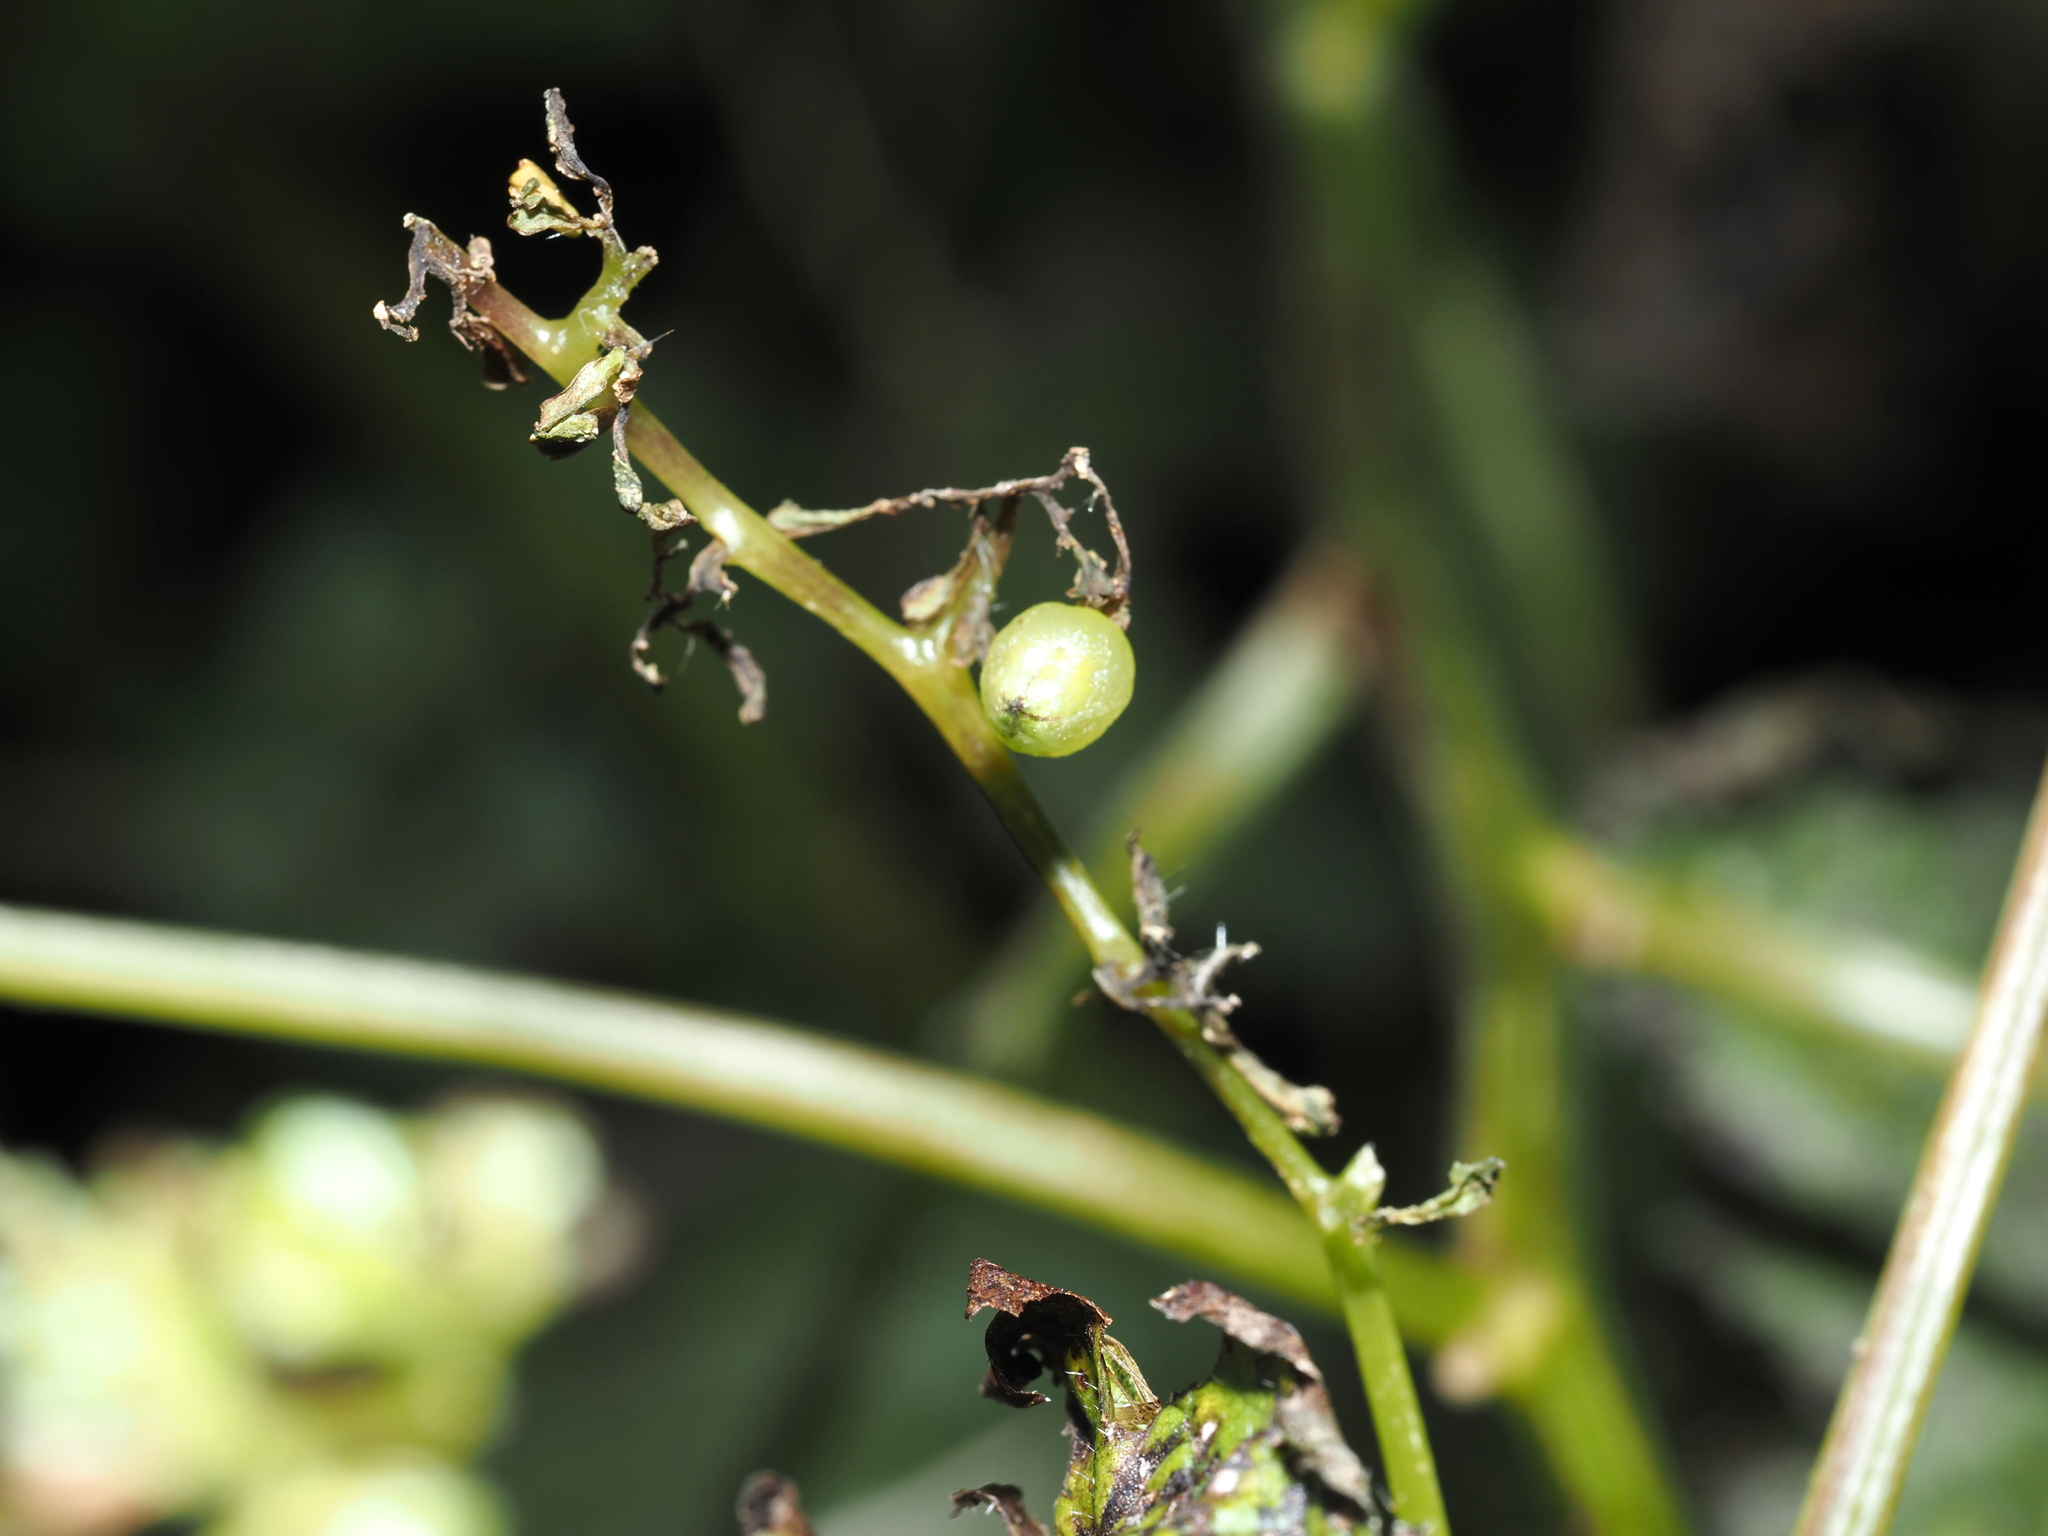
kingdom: Animalia
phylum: Arthropoda
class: Insecta
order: Diptera
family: Cecidomyiidae
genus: Dasineura
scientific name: Dasineura investita
